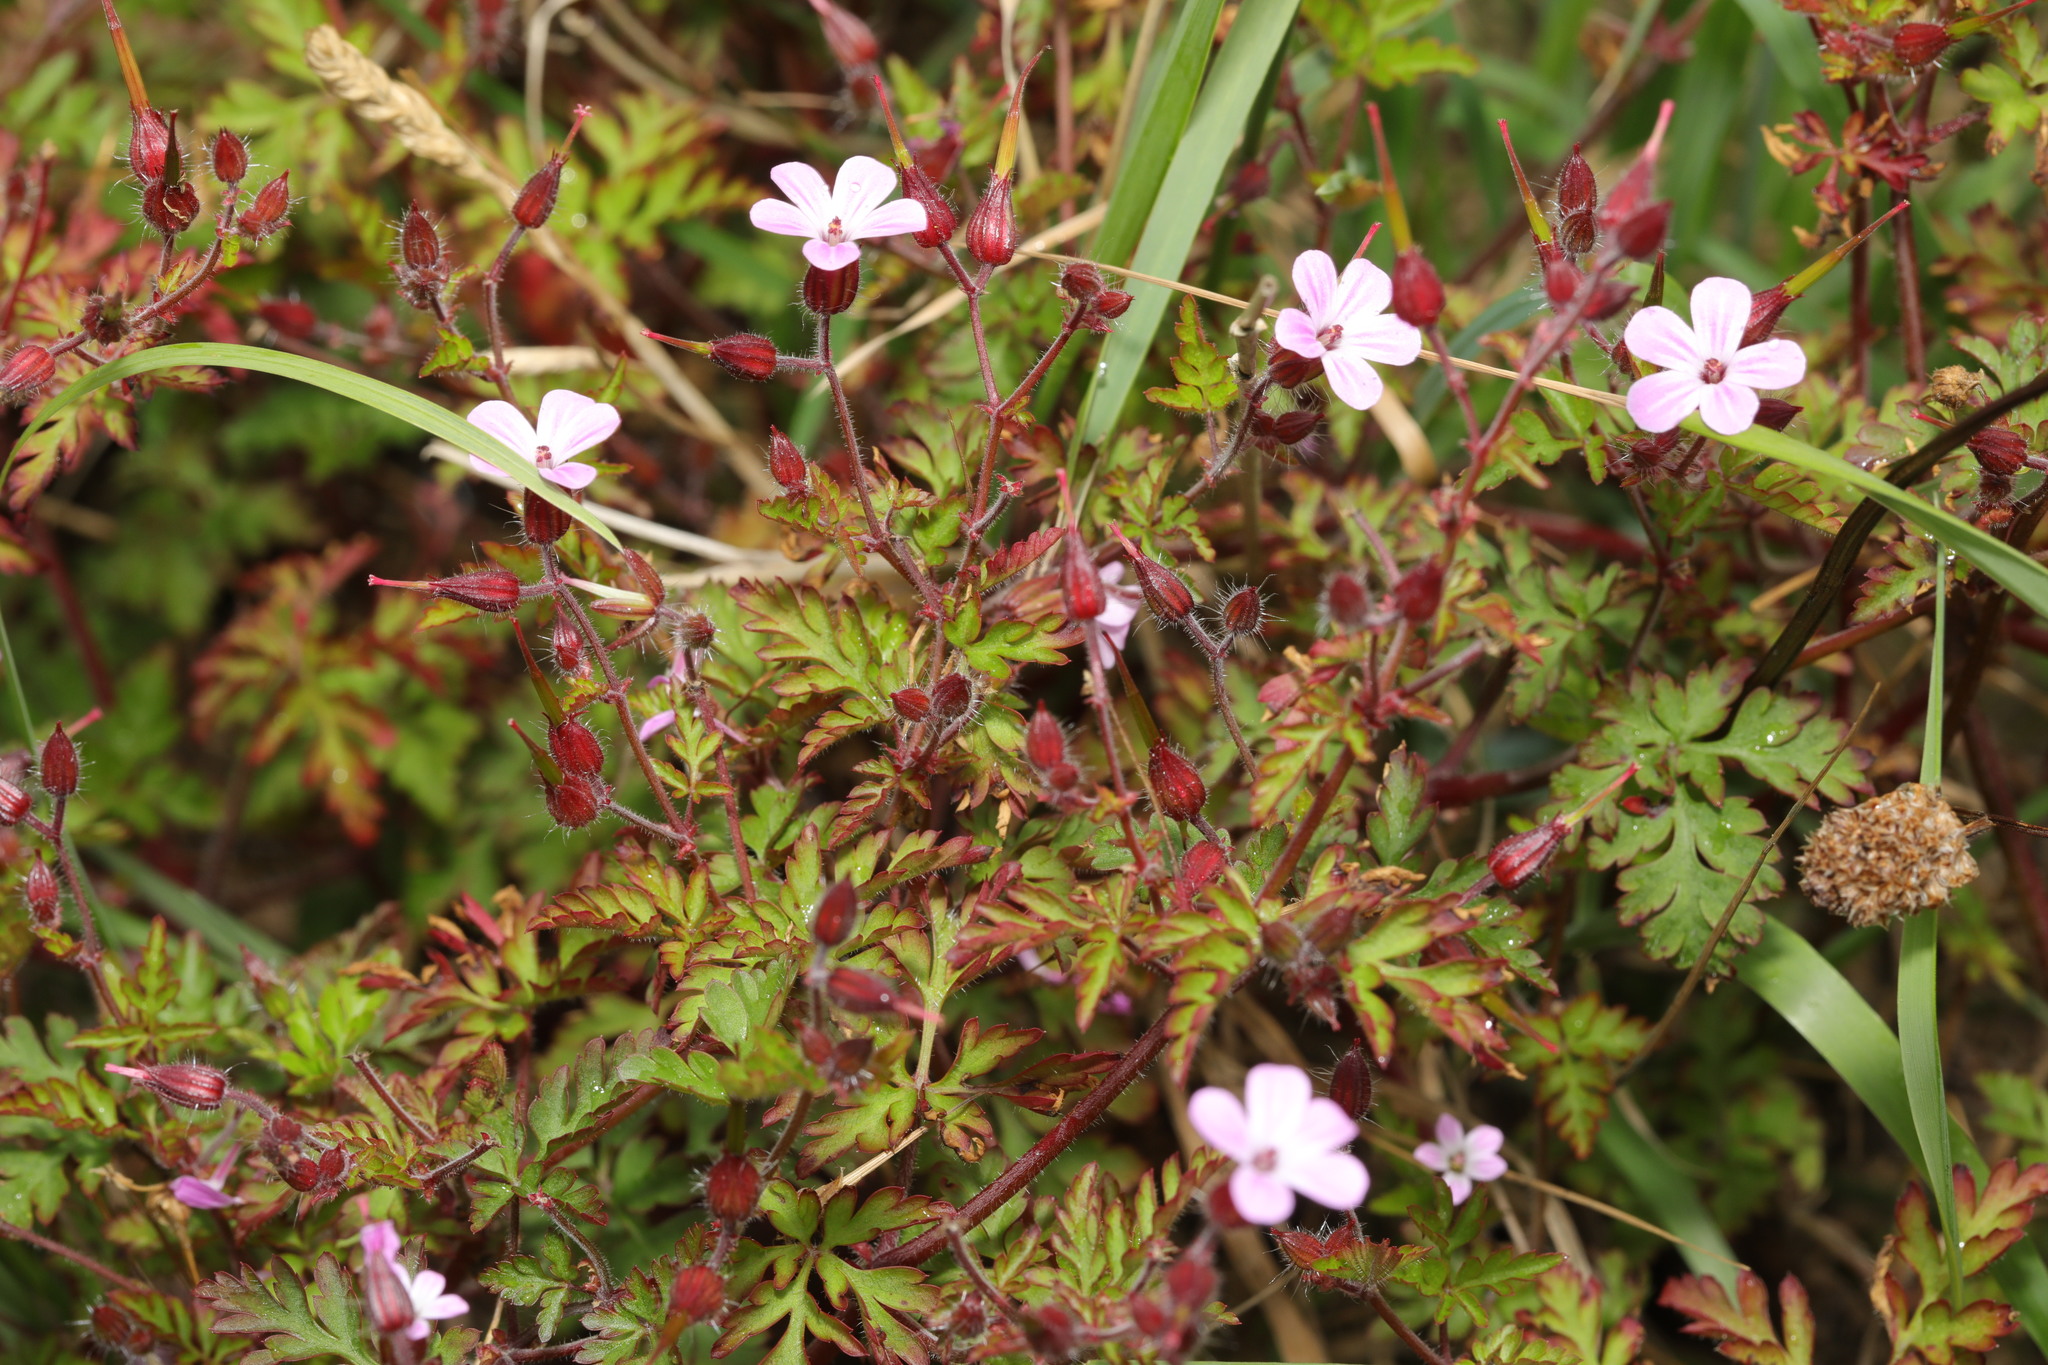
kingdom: Plantae
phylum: Tracheophyta
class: Magnoliopsida
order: Geraniales
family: Geraniaceae
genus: Geranium
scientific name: Geranium robertianum
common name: Herb-robert
